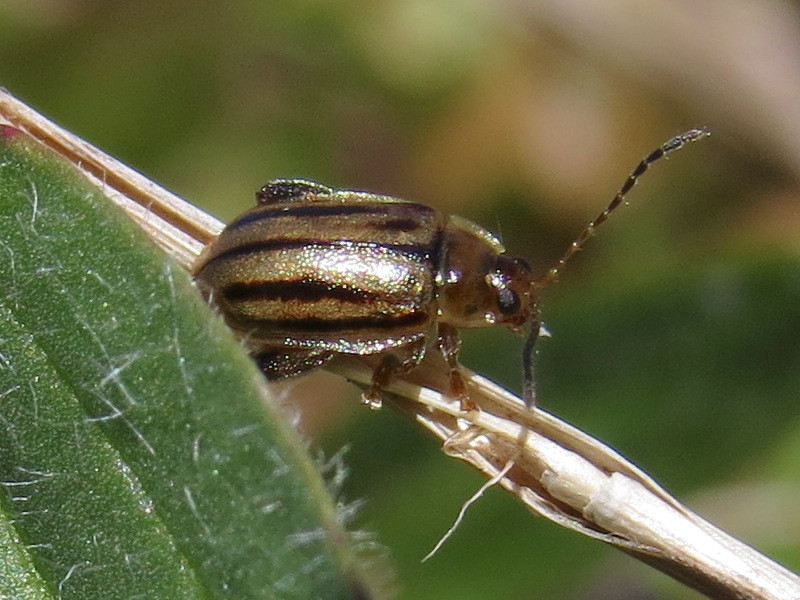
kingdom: Animalia
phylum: Arthropoda
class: Insecta
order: Coleoptera
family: Chrysomelidae
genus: Capraita
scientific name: Capraita subvittata
